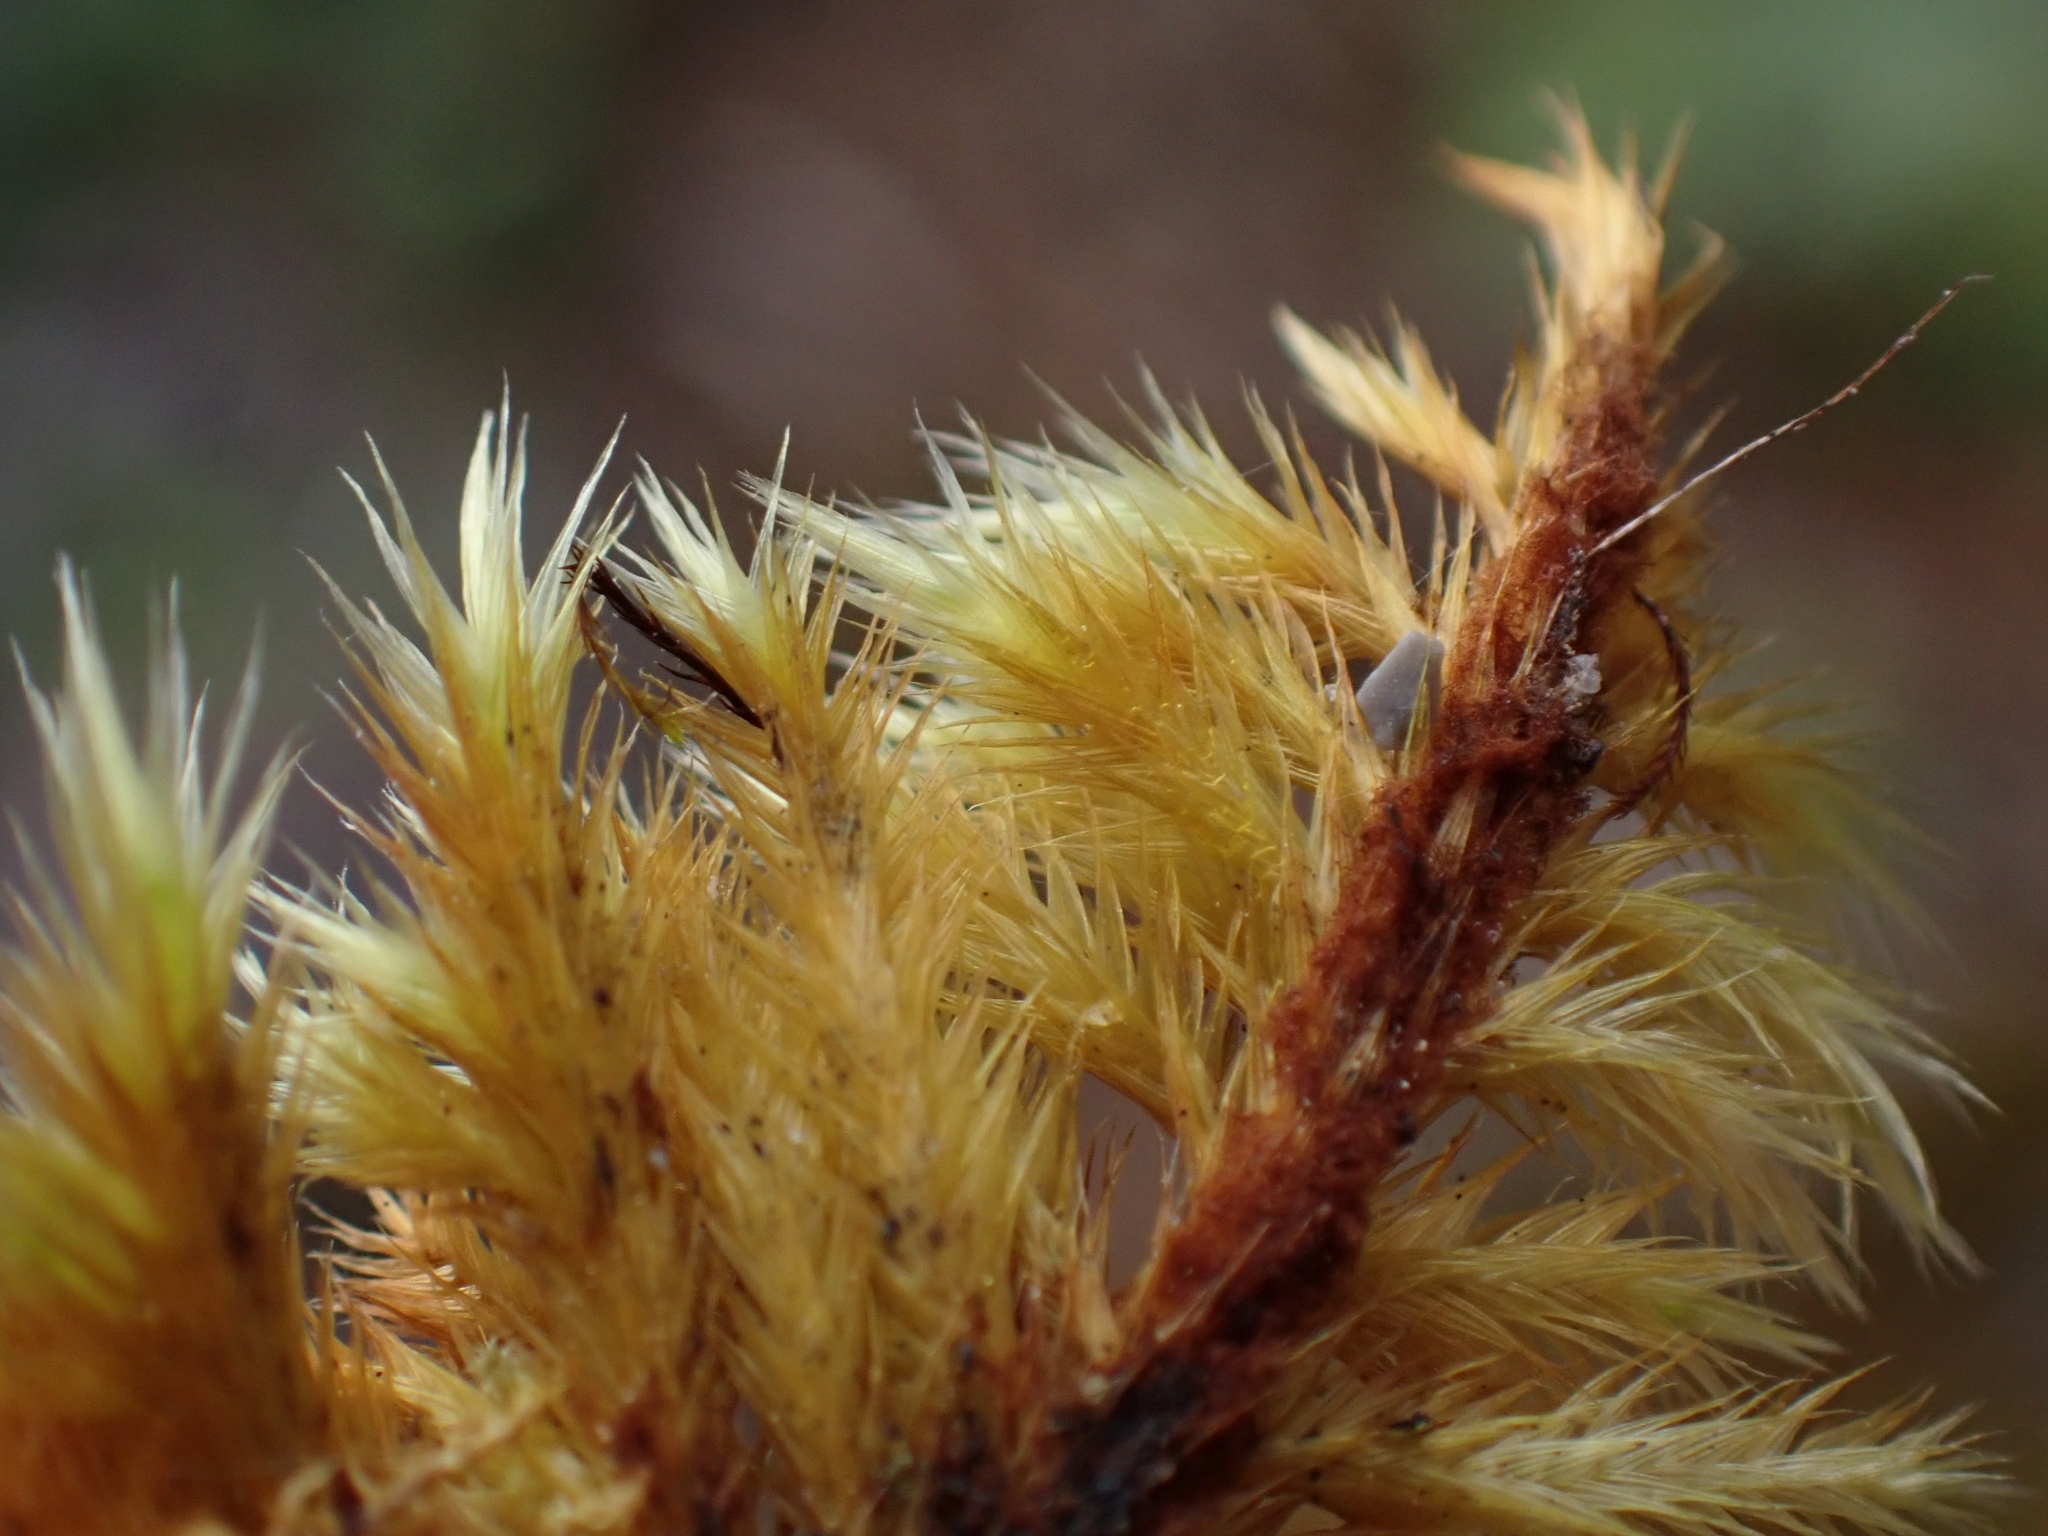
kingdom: Plantae
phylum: Bryophyta
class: Bryopsida
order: Hypnales
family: Amblystegiaceae
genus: Tomentypnum
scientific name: Tomentypnum nitens
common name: Golden fuzzy fen moss
